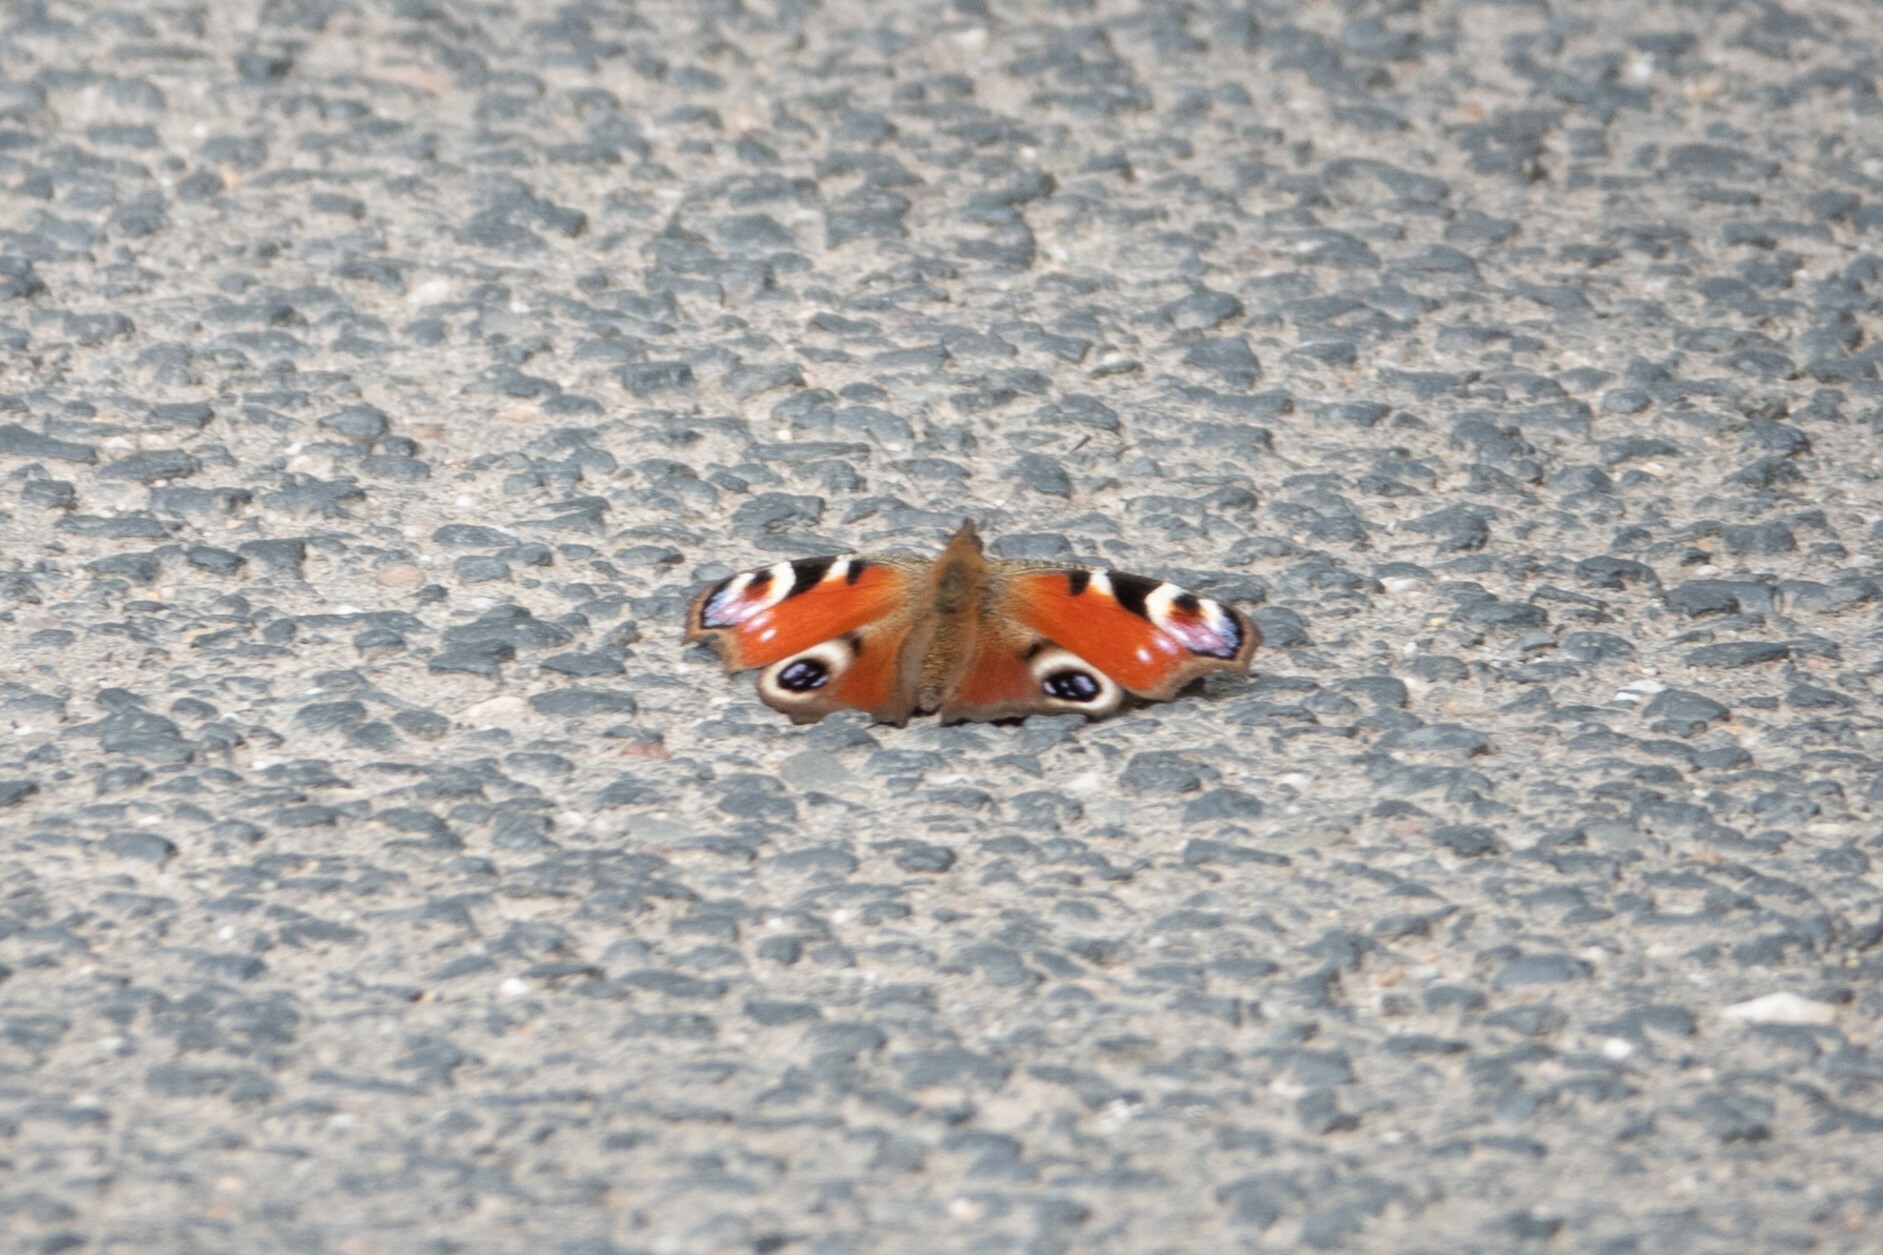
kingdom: Animalia
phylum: Arthropoda
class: Insecta
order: Lepidoptera
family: Nymphalidae
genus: Aglais
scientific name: Aglais io
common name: Peacock
